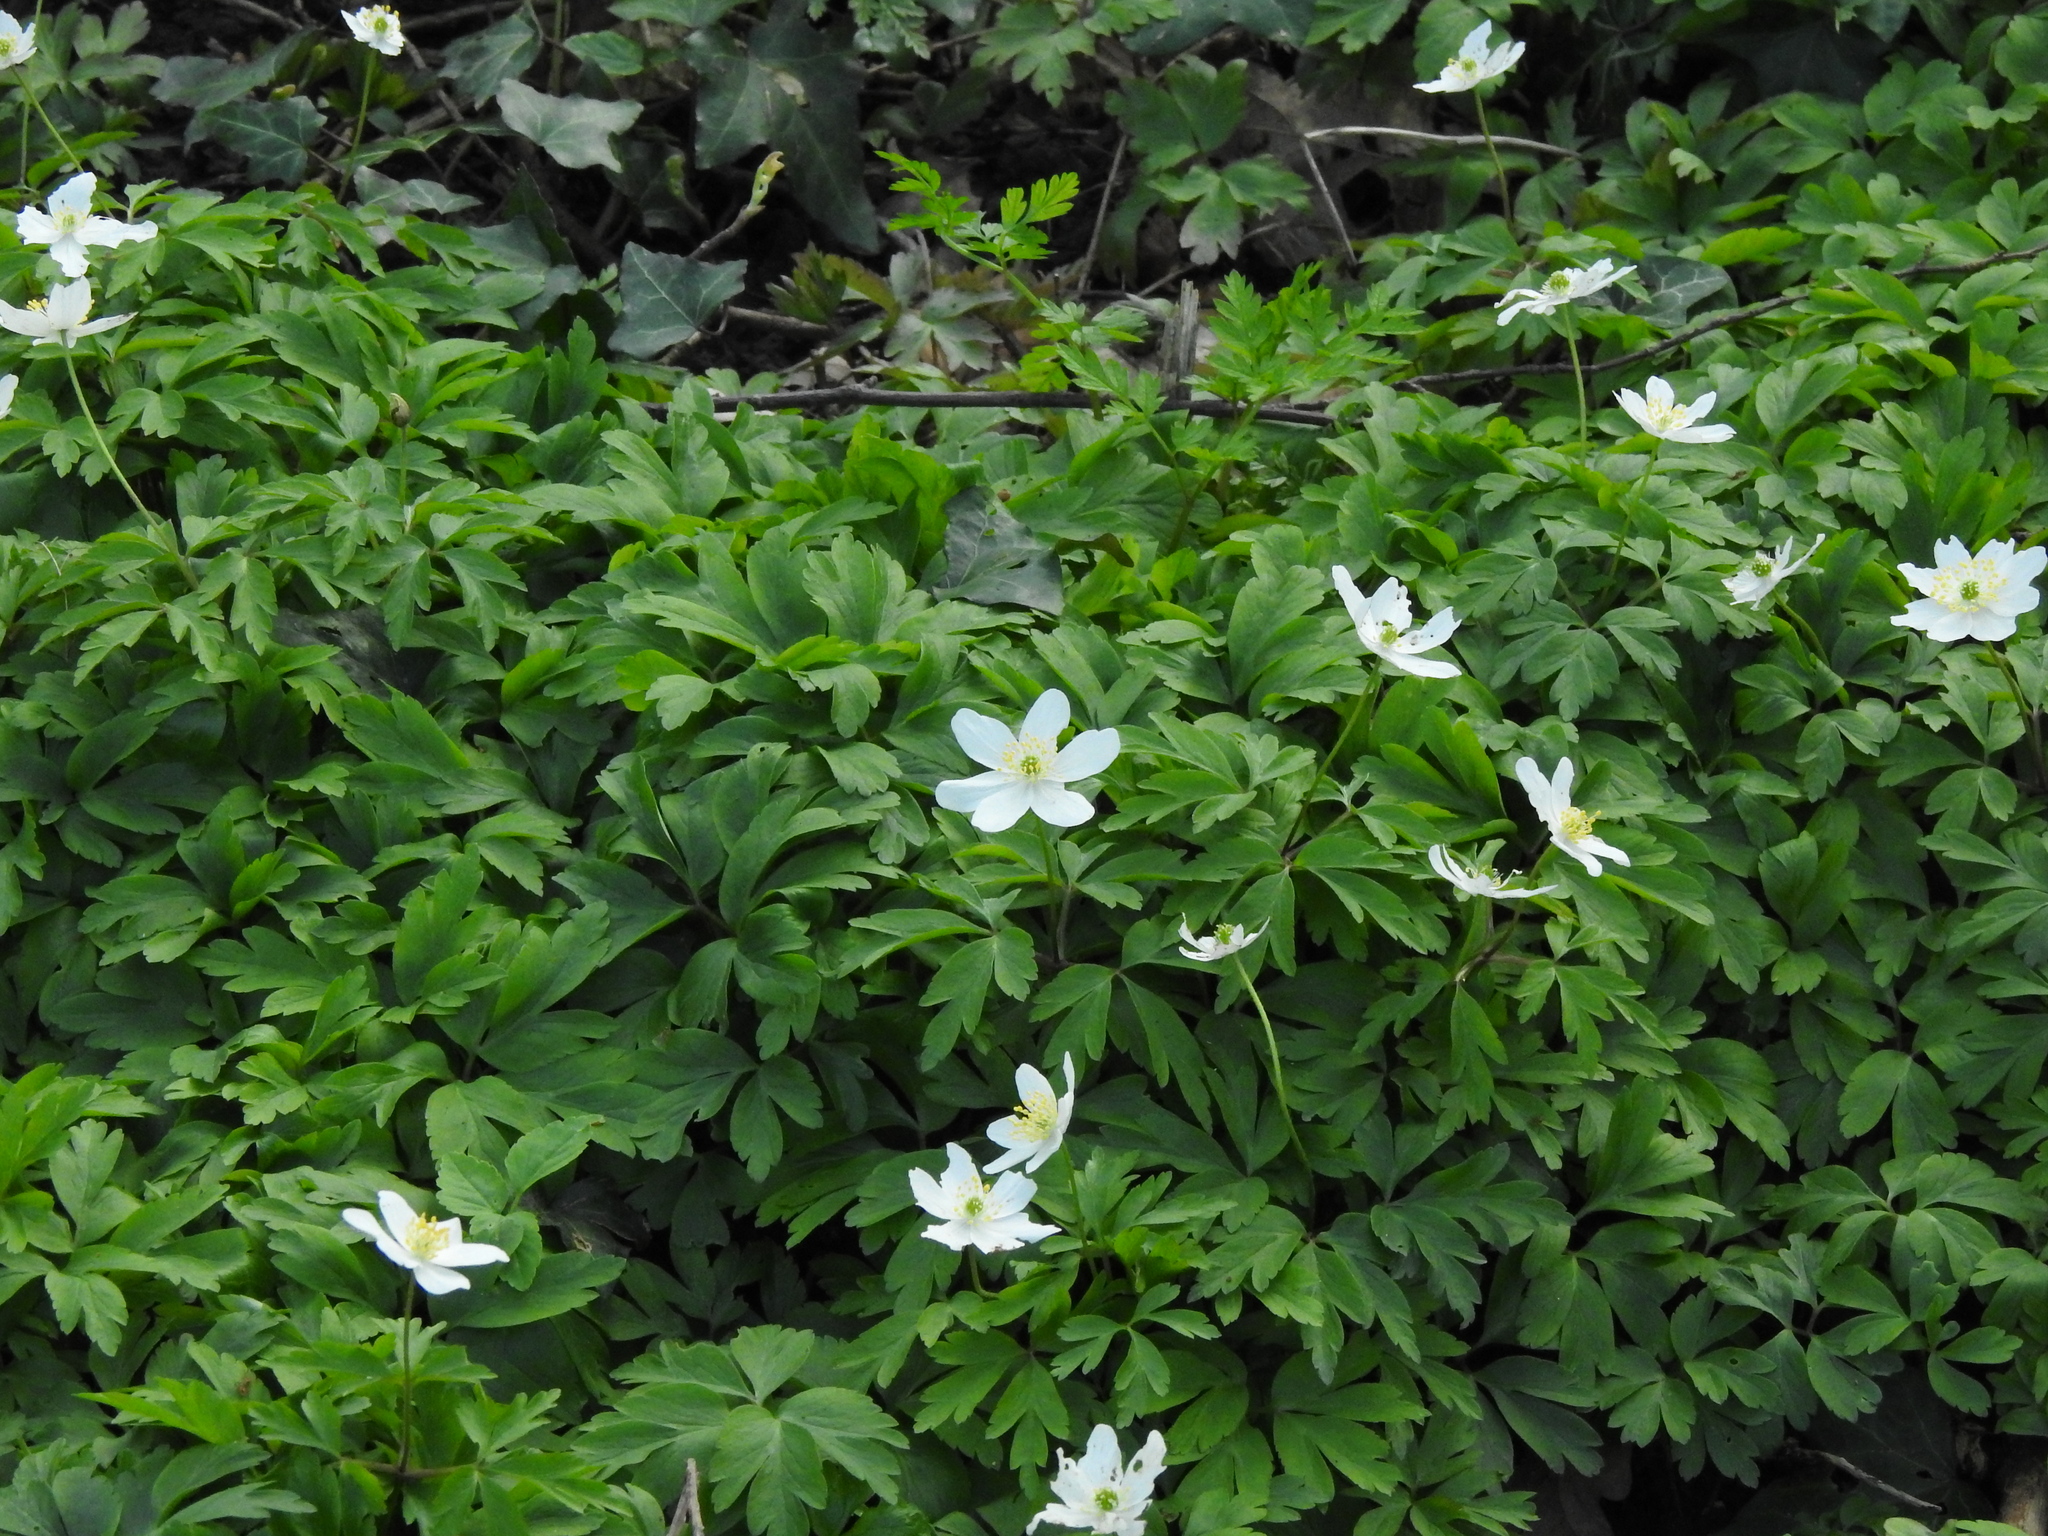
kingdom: Plantae
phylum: Tracheophyta
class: Magnoliopsida
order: Ranunculales
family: Ranunculaceae
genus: Anemone
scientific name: Anemone nemorosa
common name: Wood anemone
